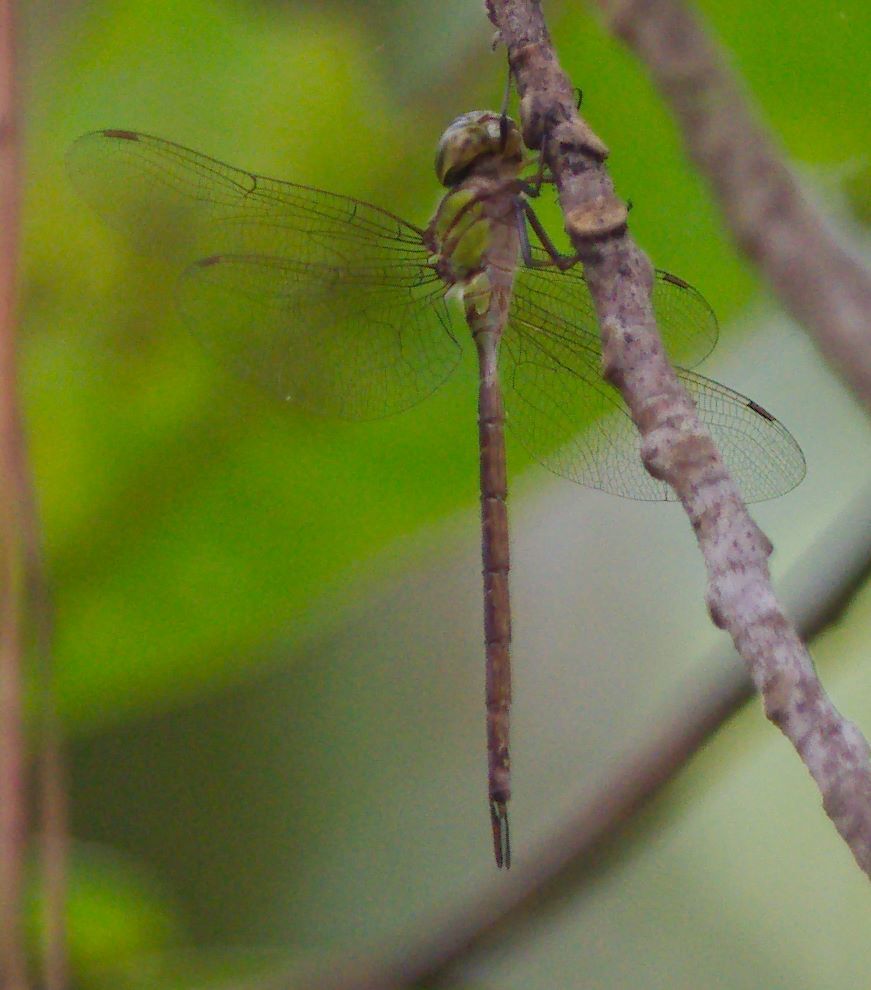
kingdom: Animalia
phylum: Arthropoda
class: Insecta
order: Odonata
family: Aeshnidae
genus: Triacanthagyna
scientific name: Triacanthagyna trifida
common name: Phantom darner
